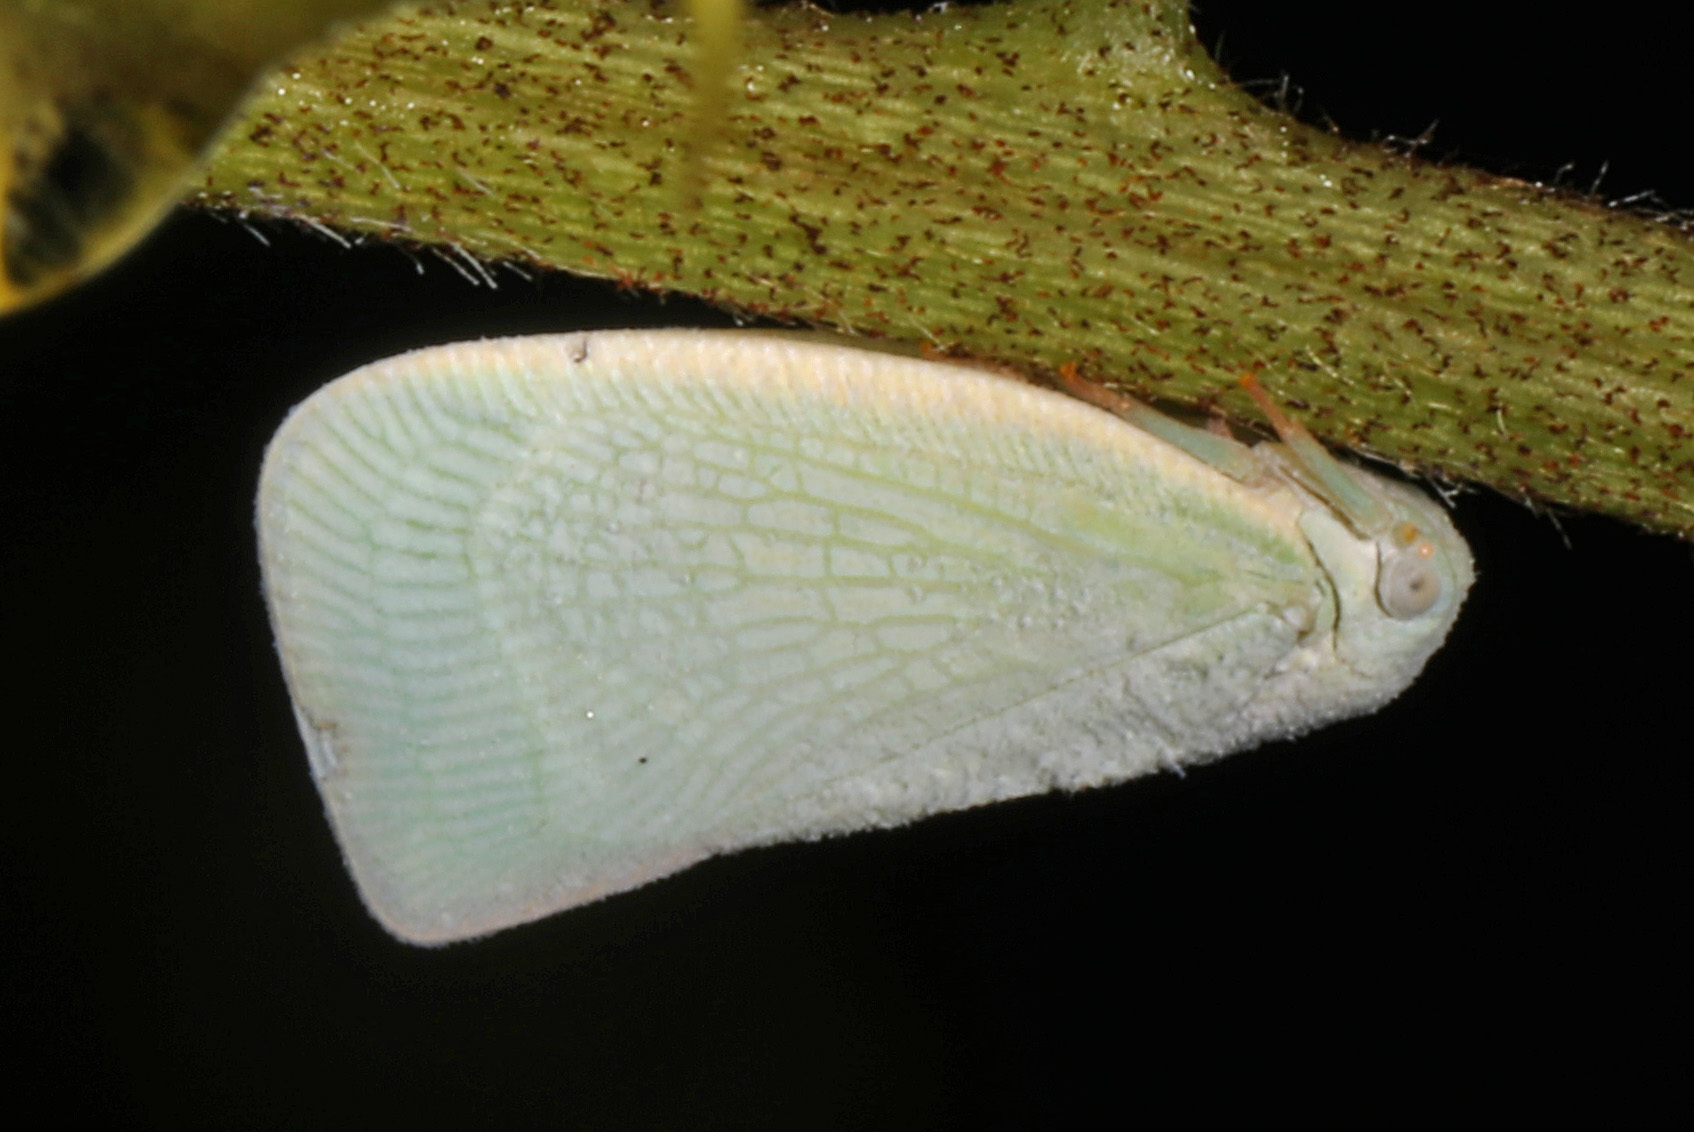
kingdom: Animalia
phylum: Arthropoda
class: Insecta
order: Hemiptera
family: Flatidae
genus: Flatormenis
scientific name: Flatormenis proxima
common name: Northern flatid planthopper
